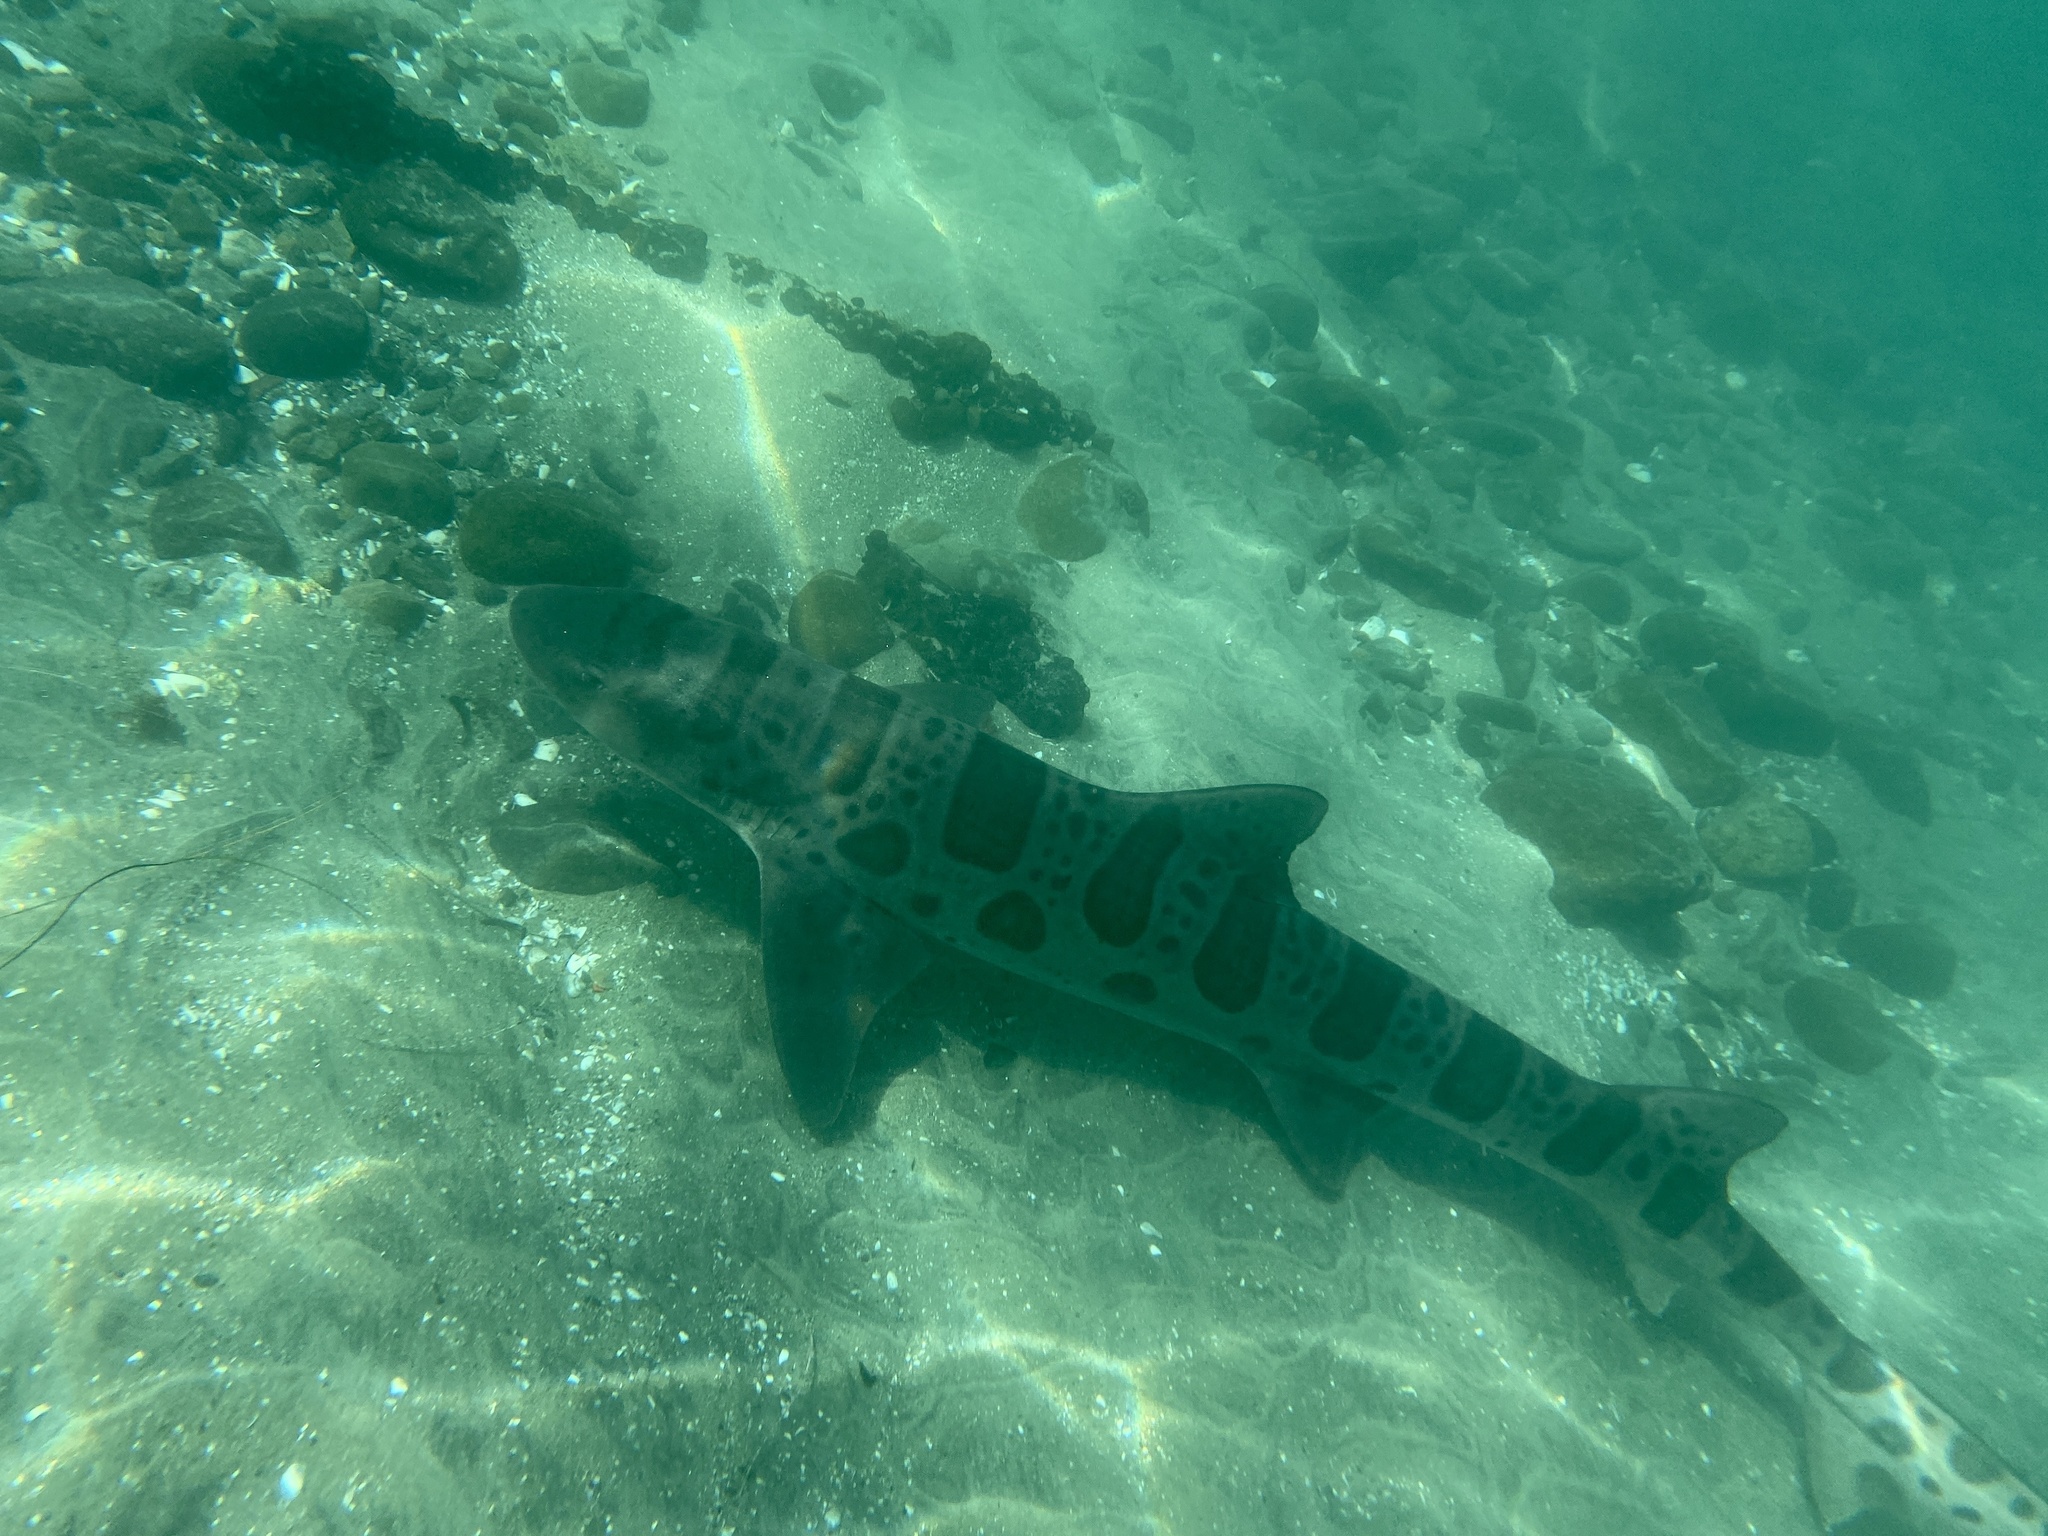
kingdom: Animalia
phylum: Chordata
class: Elasmobranchii
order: Carcharhiniformes
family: Triakidae
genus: Triakis
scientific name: Triakis semifasciata
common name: Leopard shark
